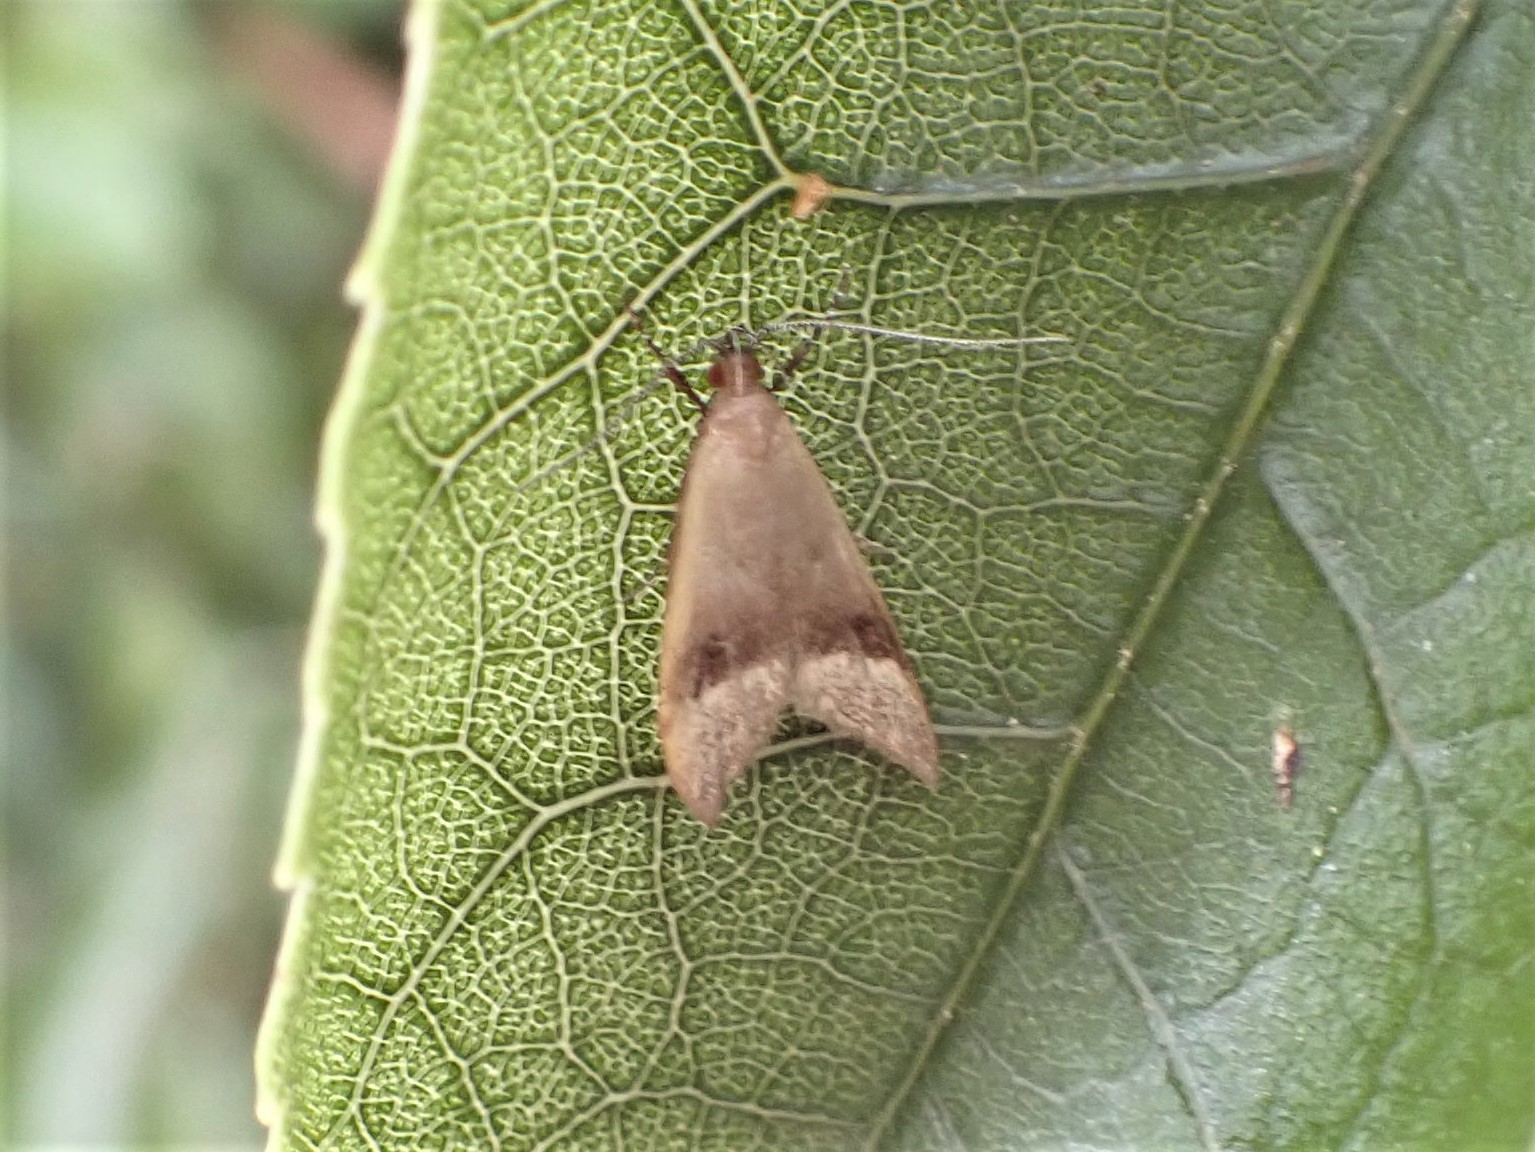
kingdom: Animalia
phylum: Arthropoda
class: Insecta
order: Lepidoptera
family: Oecophoridae
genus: Gymnobathra
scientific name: Gymnobathra hyetodes
